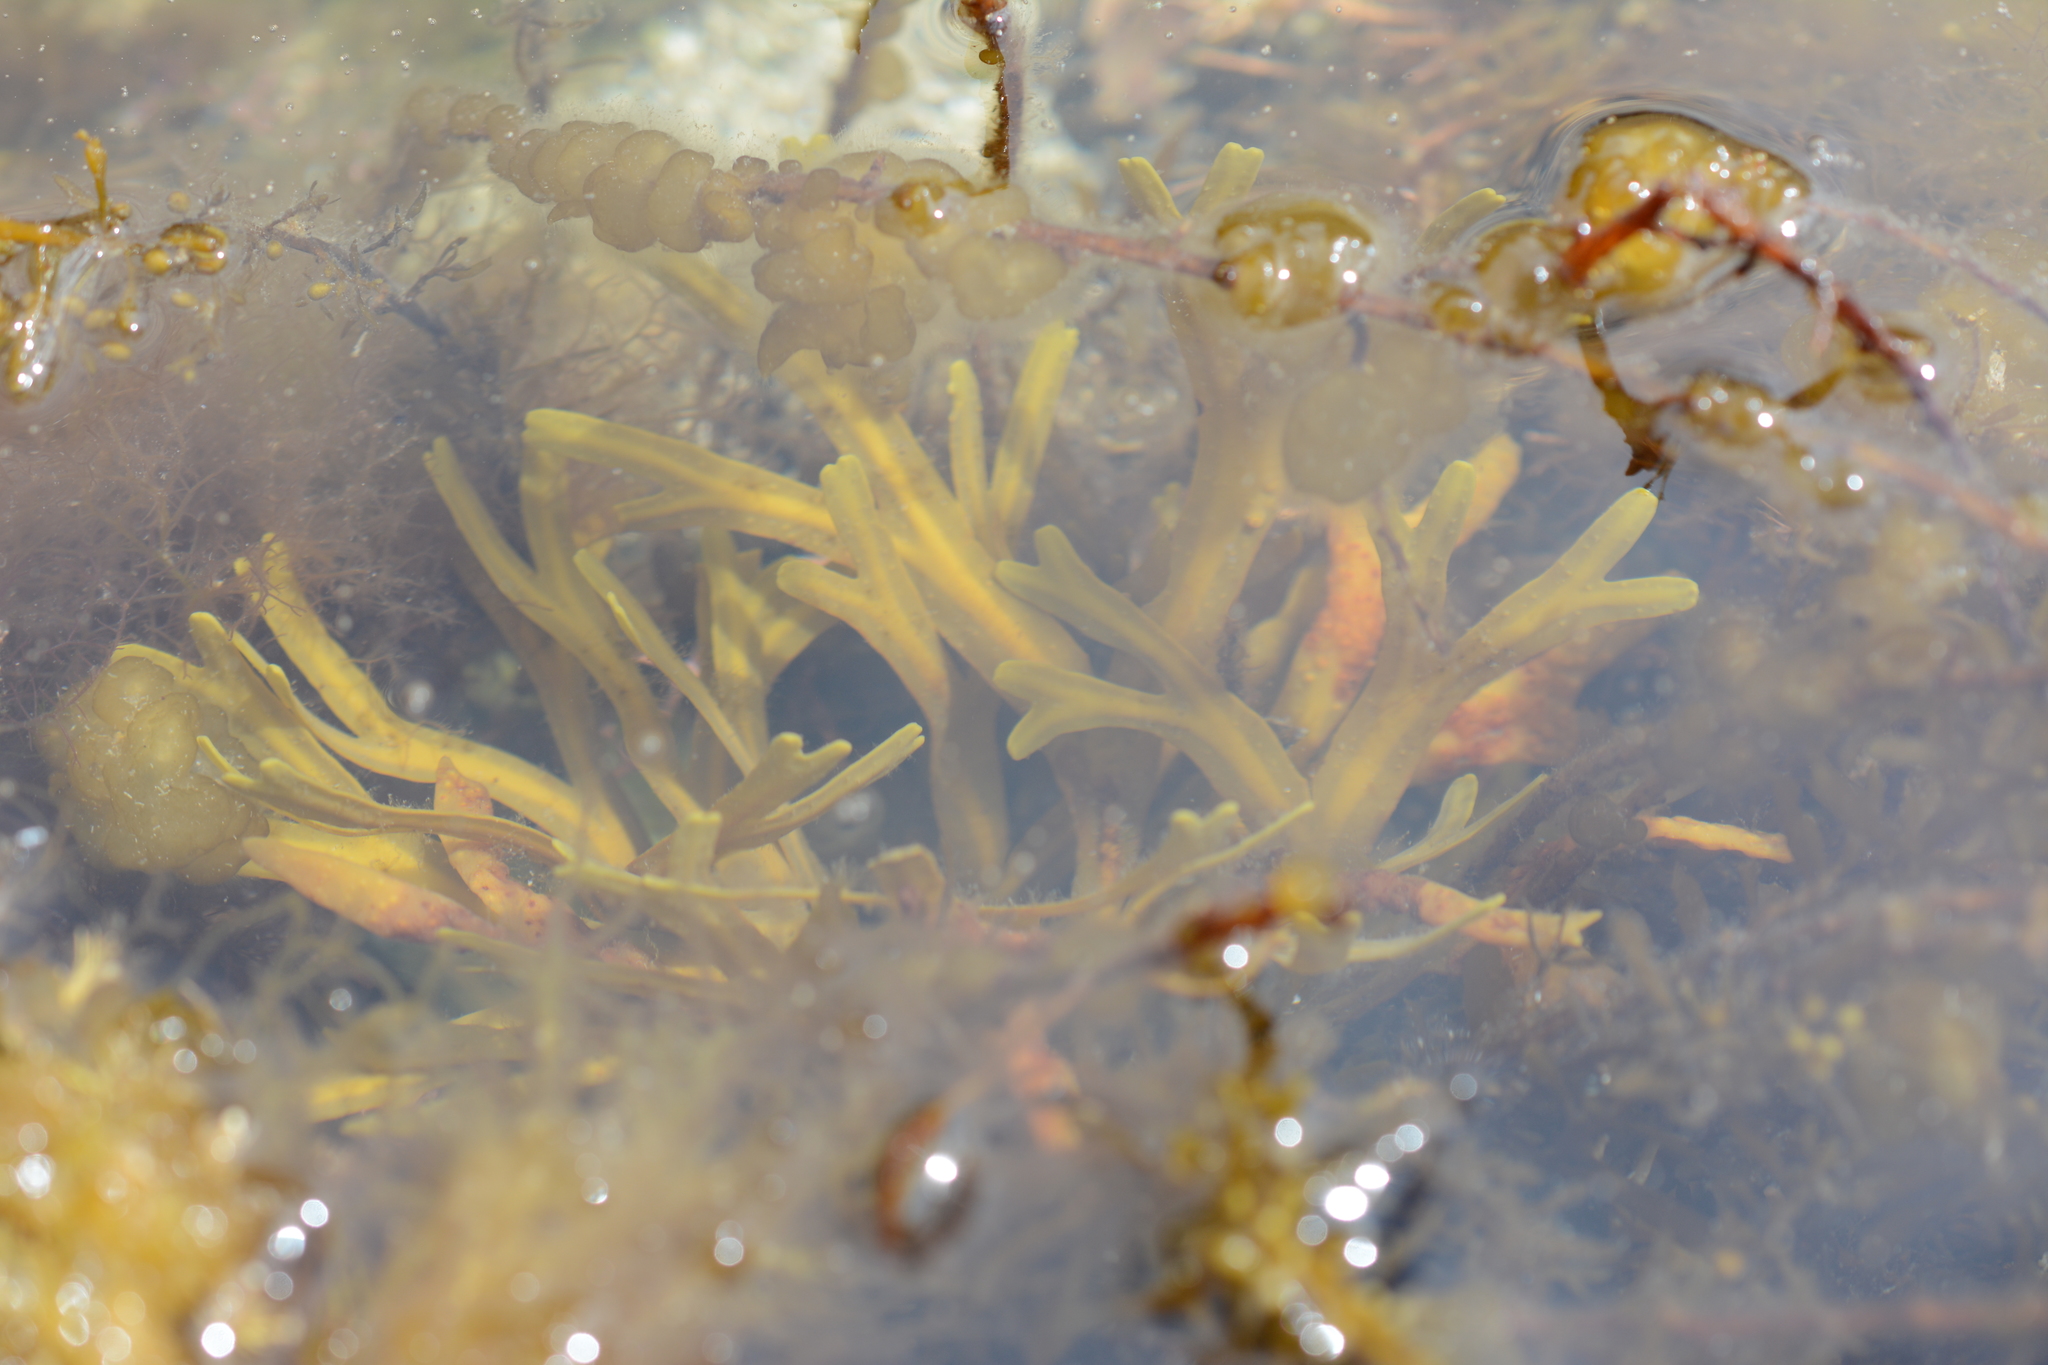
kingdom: Chromista
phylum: Ochrophyta
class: Phaeophyceae
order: Fucales
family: Fucaceae
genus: Fucus
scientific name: Fucus distichus
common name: Rockweed
